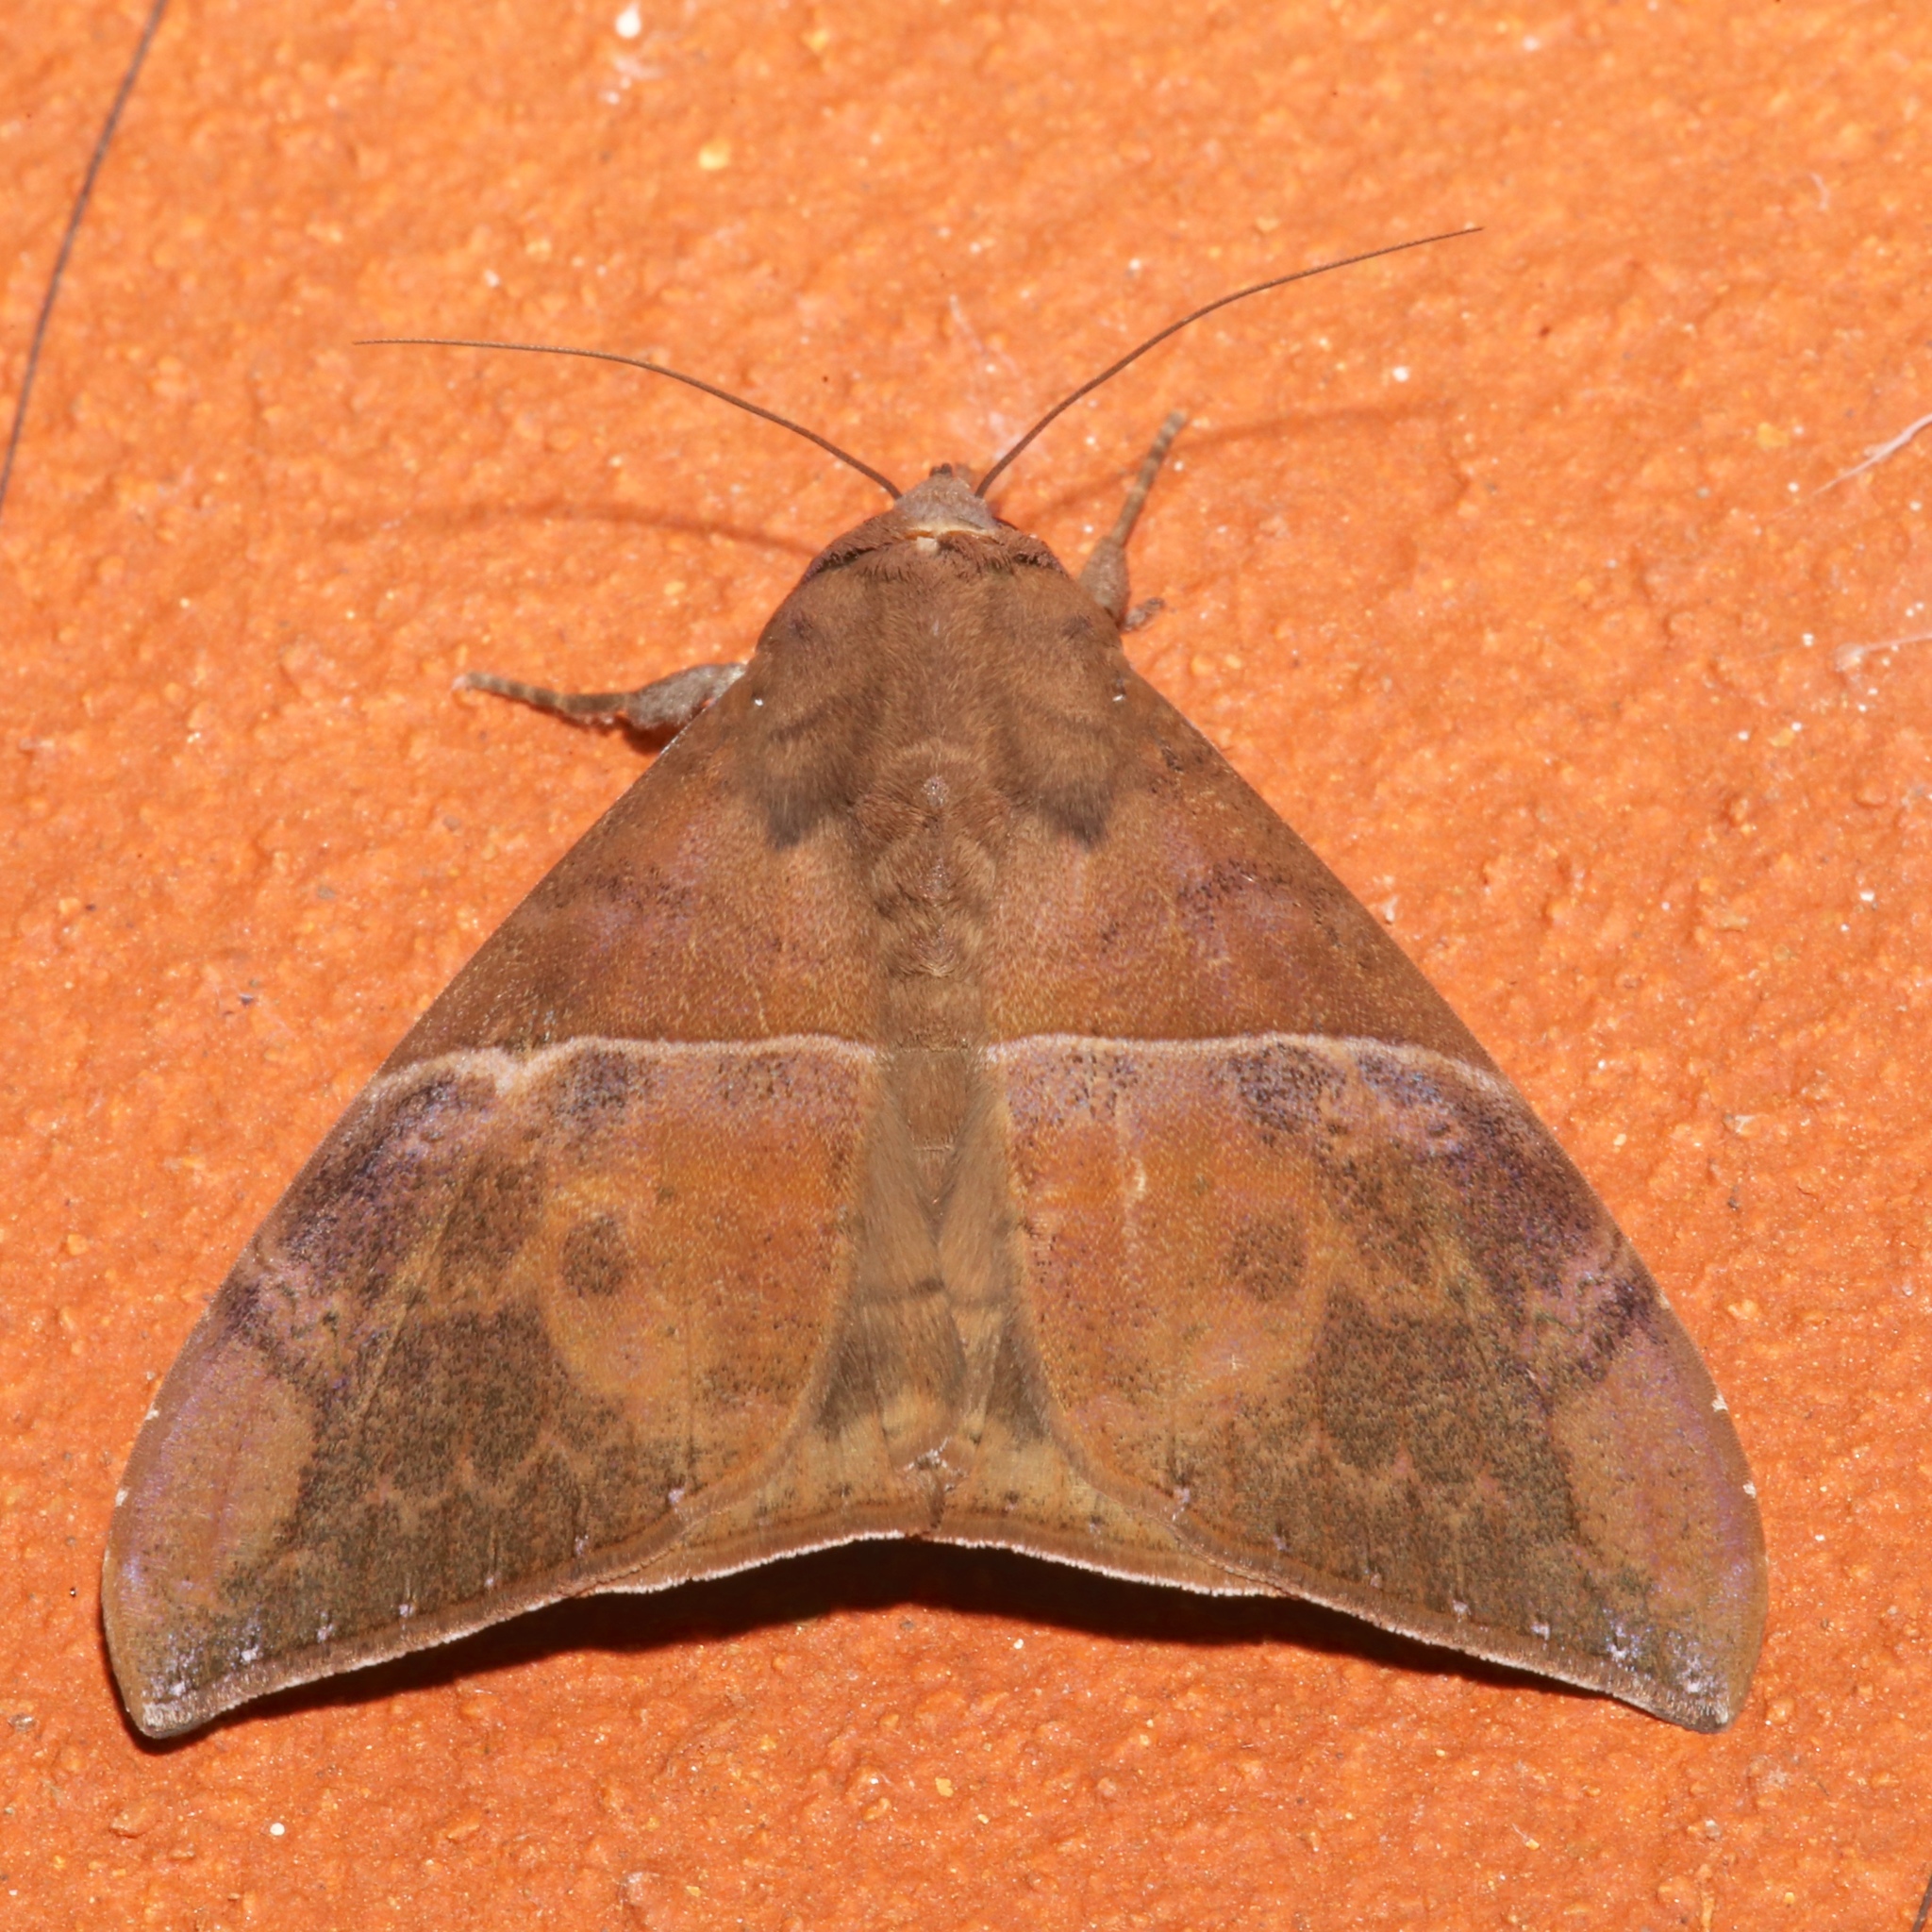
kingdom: Animalia
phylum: Arthropoda
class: Insecta
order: Lepidoptera
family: Erebidae
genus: Ophisma
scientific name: Ophisma tropicalis
